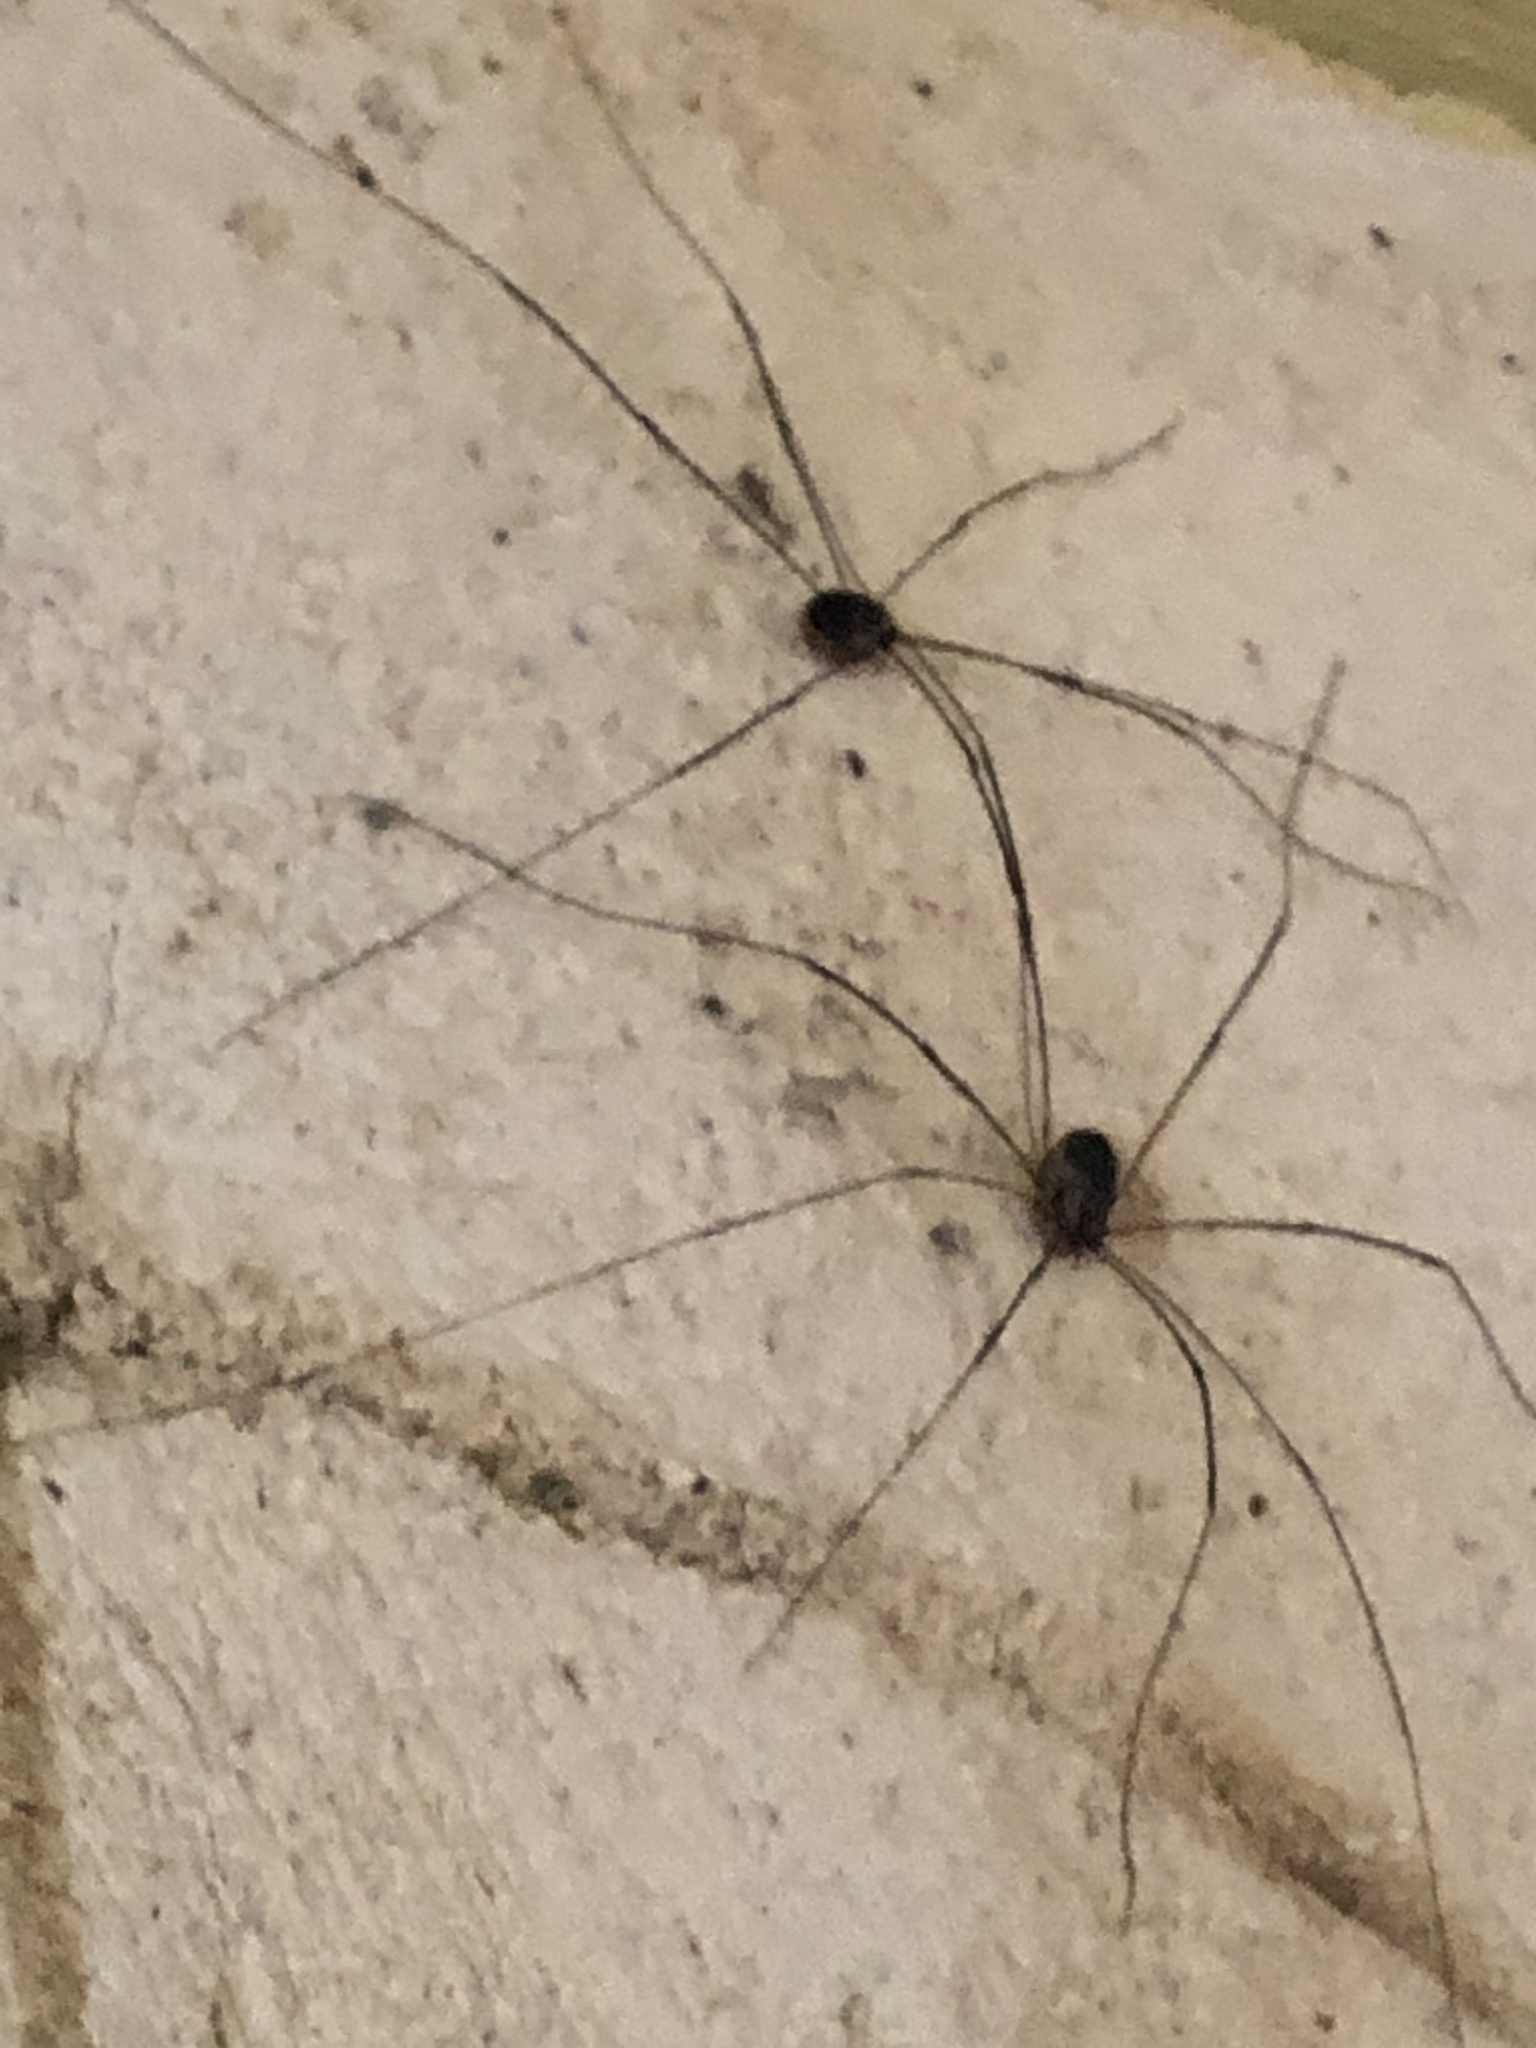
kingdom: Animalia
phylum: Arthropoda
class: Arachnida
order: Opiliones
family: Sclerosomatidae
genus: Leiobunum
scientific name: Leiobunum
